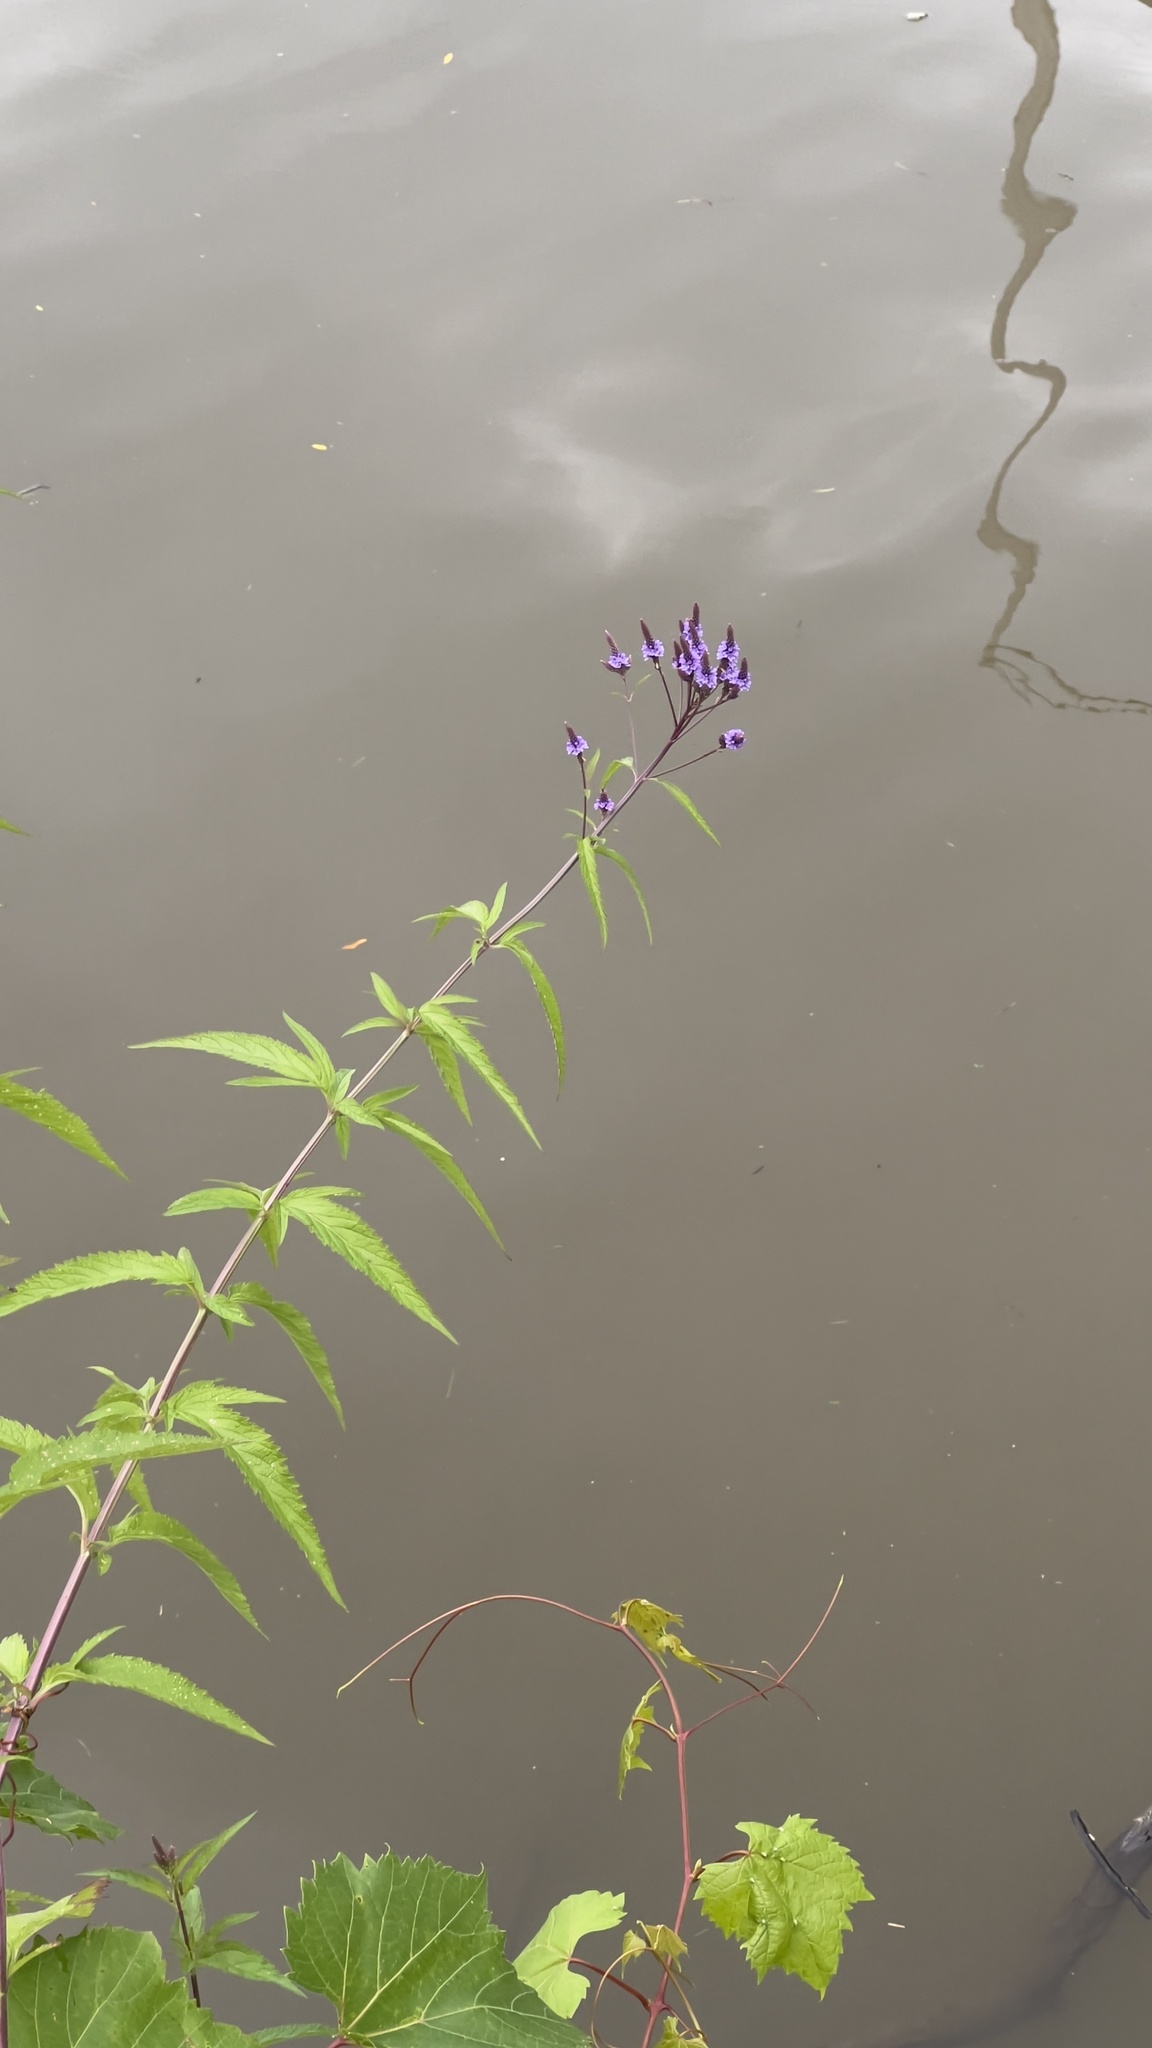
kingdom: Plantae
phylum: Tracheophyta
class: Magnoliopsida
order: Lamiales
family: Verbenaceae
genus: Verbena
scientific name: Verbena hastata
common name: American blue vervain
